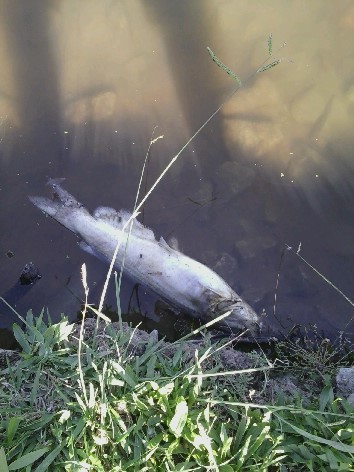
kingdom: Animalia
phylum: Chordata
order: Siluriformes
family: Ictaluridae
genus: Ictalurus
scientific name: Ictalurus punctatus
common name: Channel catfish
